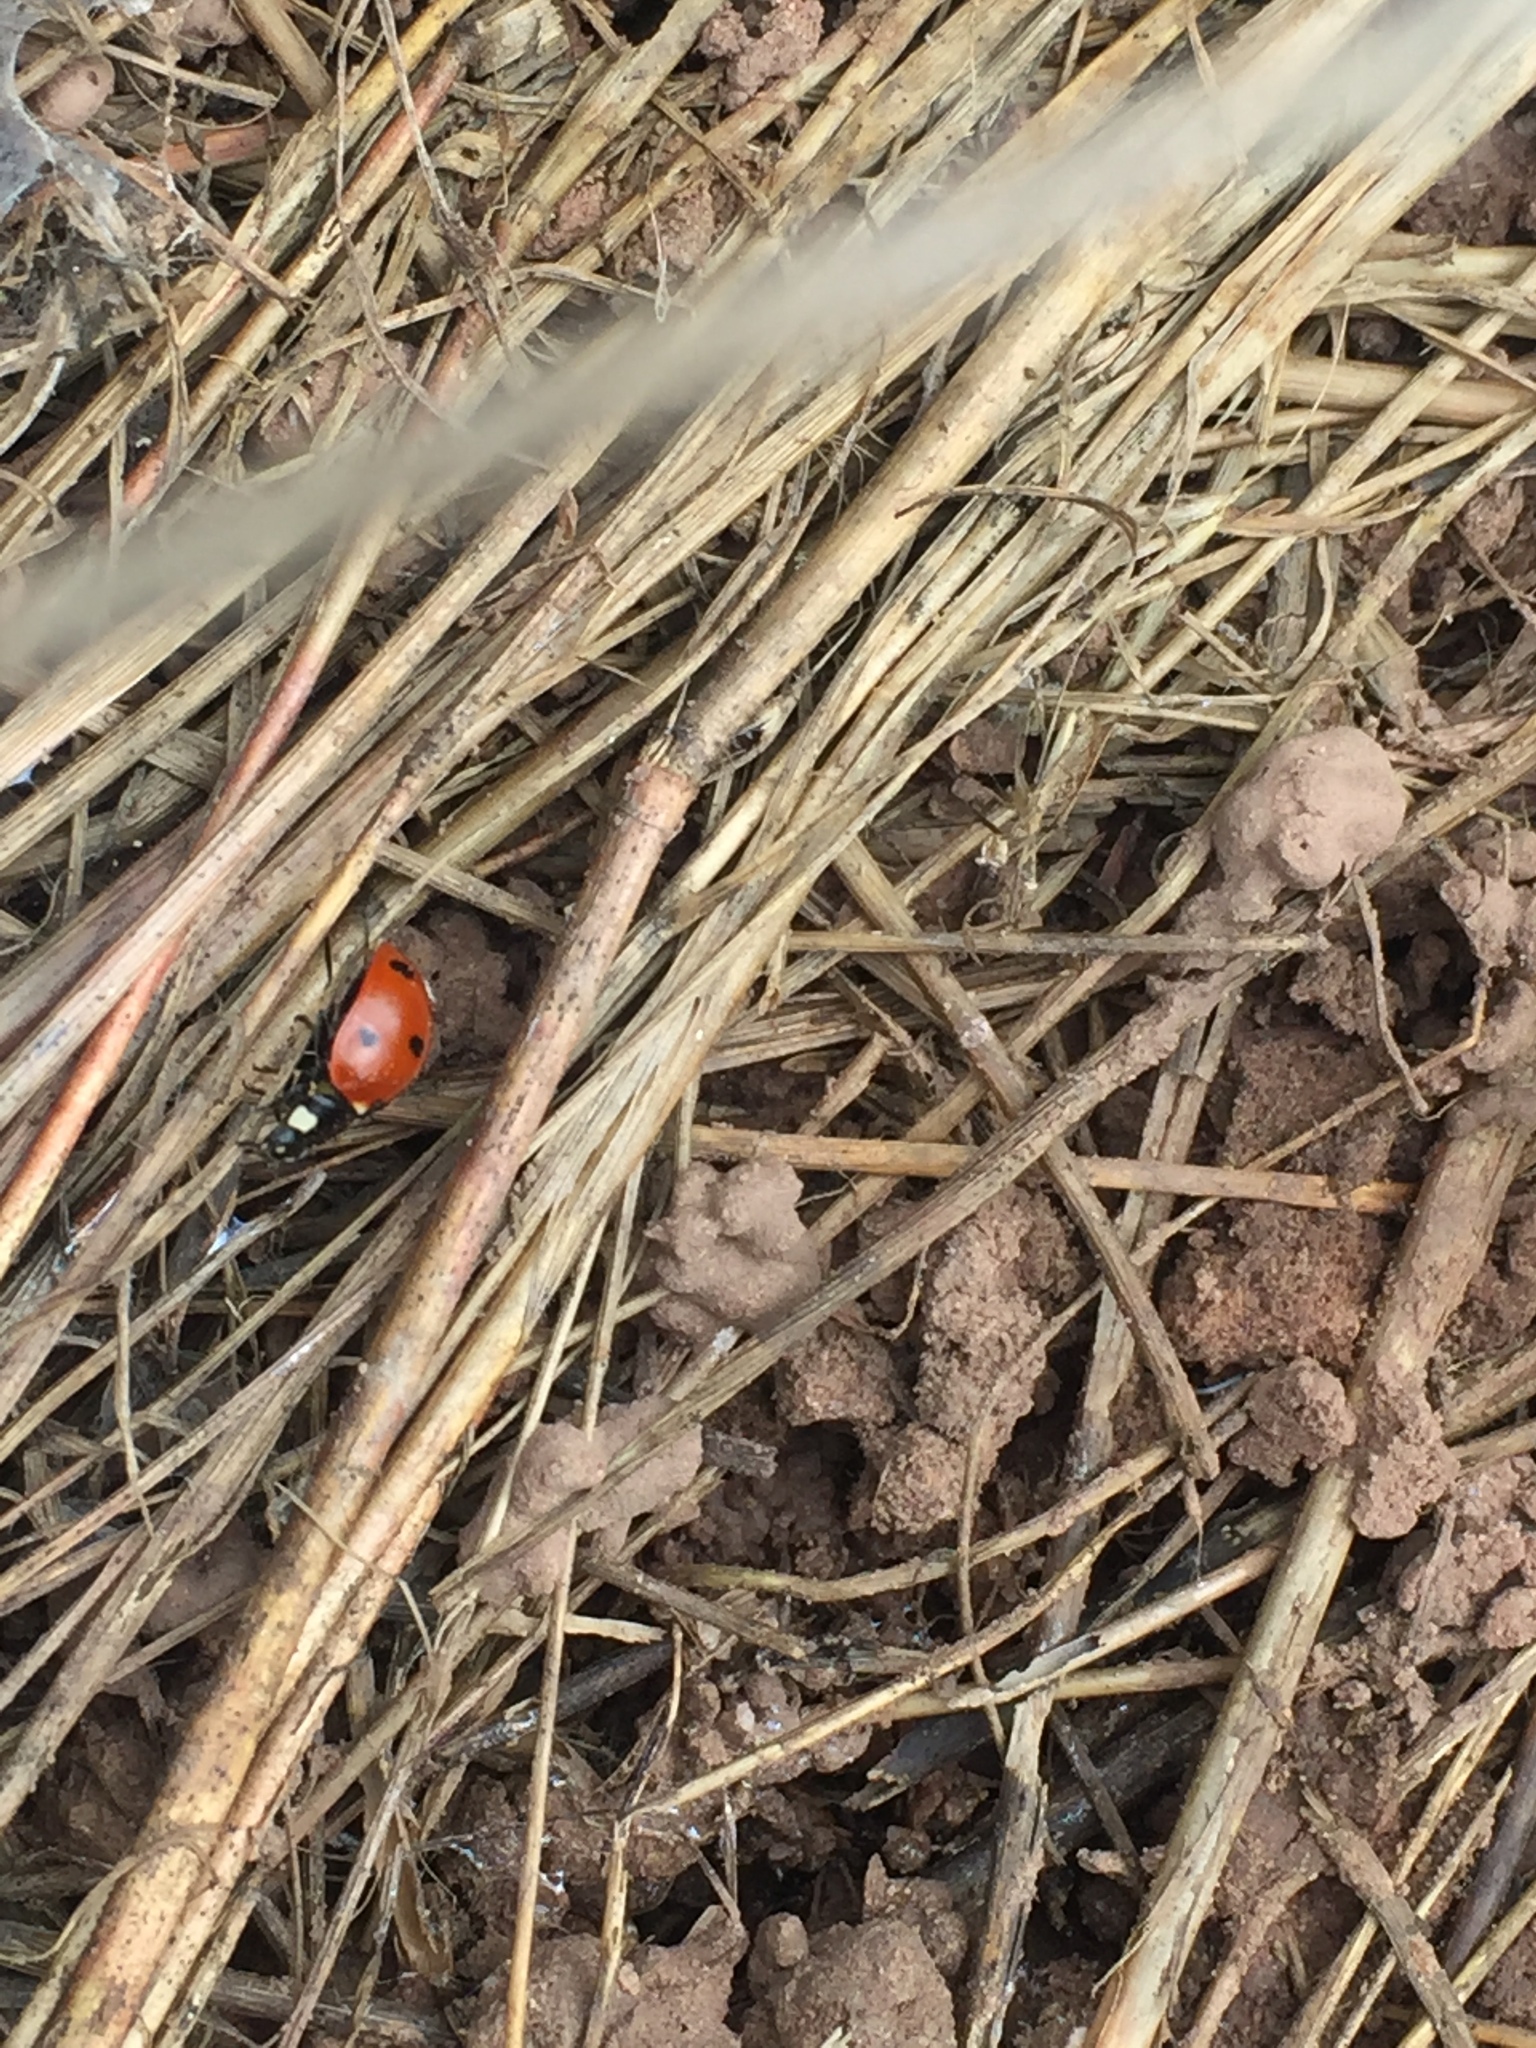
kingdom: Animalia
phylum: Arthropoda
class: Insecta
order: Coleoptera
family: Coccinellidae
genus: Coccinella
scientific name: Coccinella septempunctata
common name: Sevenspotted lady beetle
